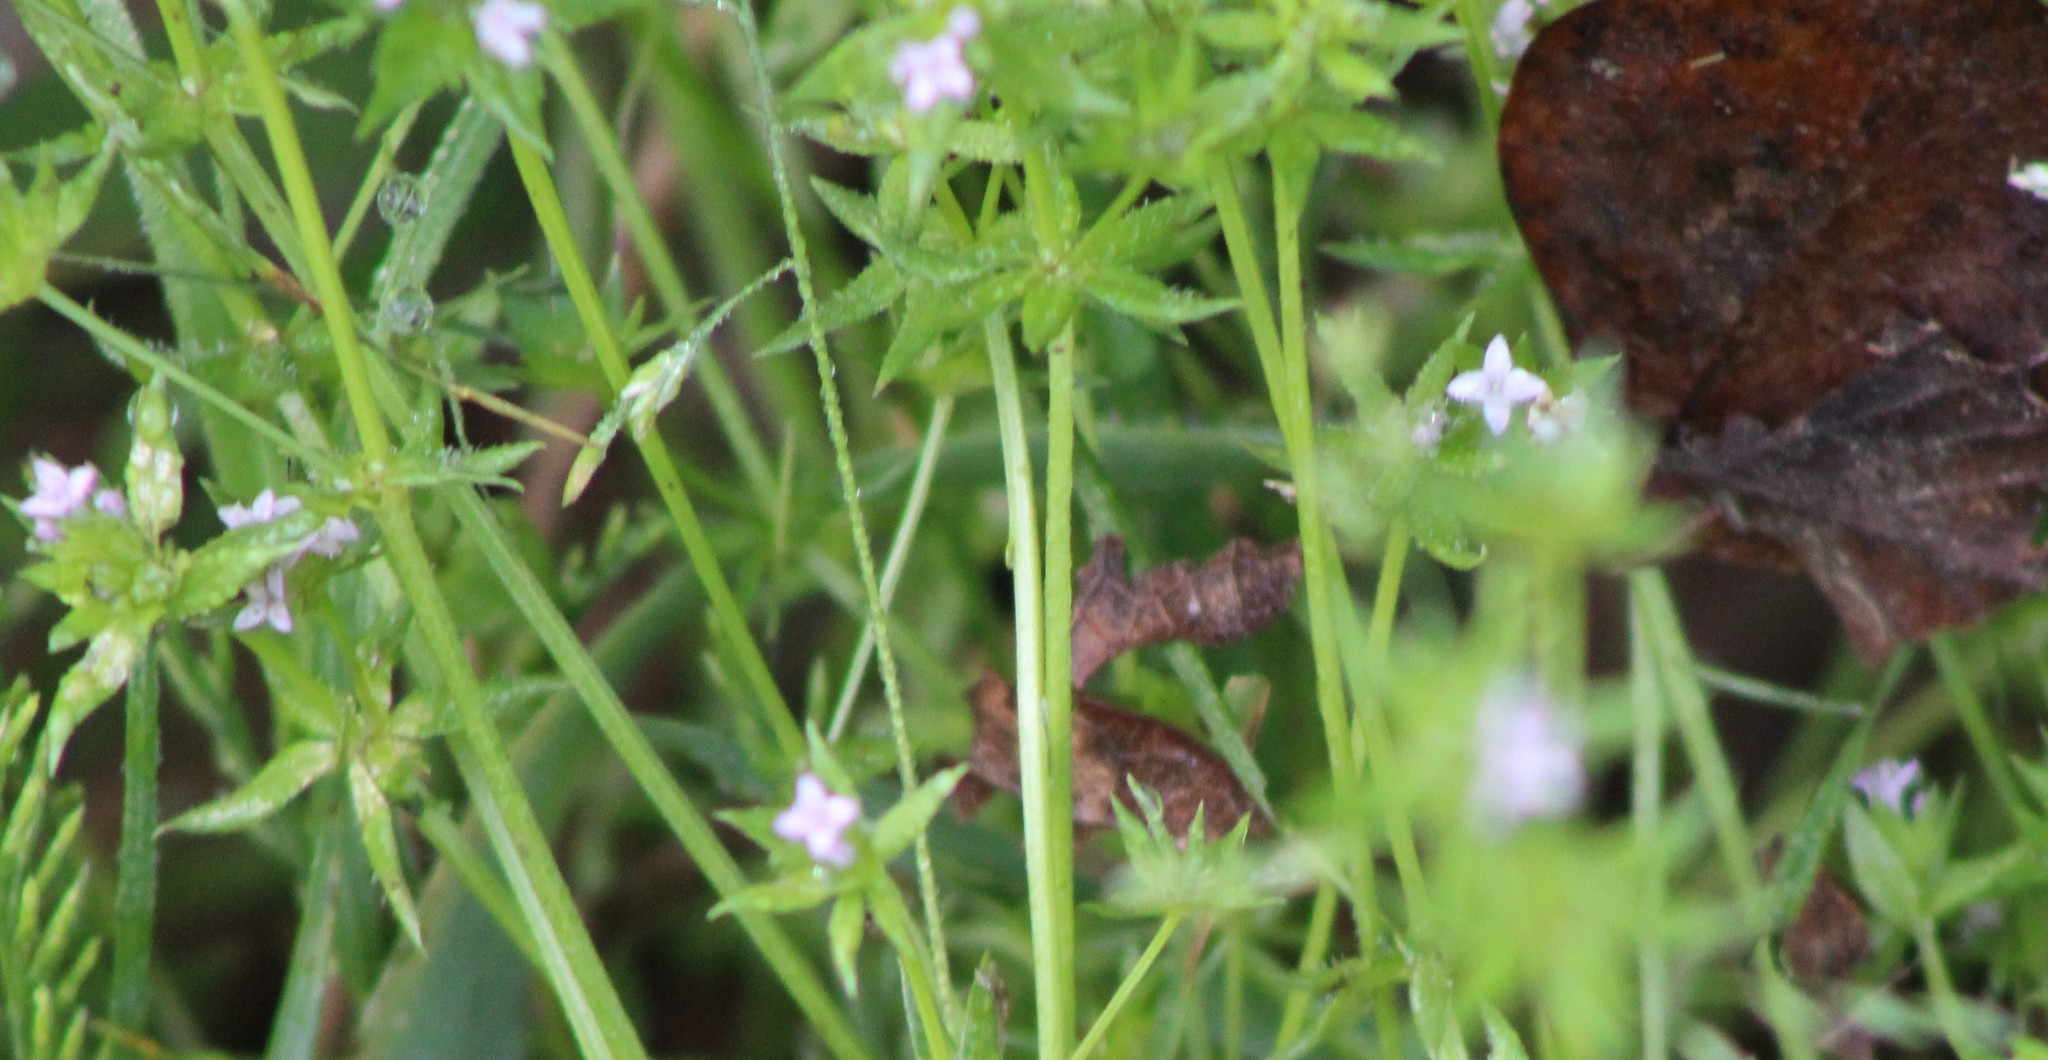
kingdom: Plantae
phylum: Tracheophyta
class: Magnoliopsida
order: Gentianales
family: Rubiaceae
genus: Sherardia
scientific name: Sherardia arvensis
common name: Field madder
